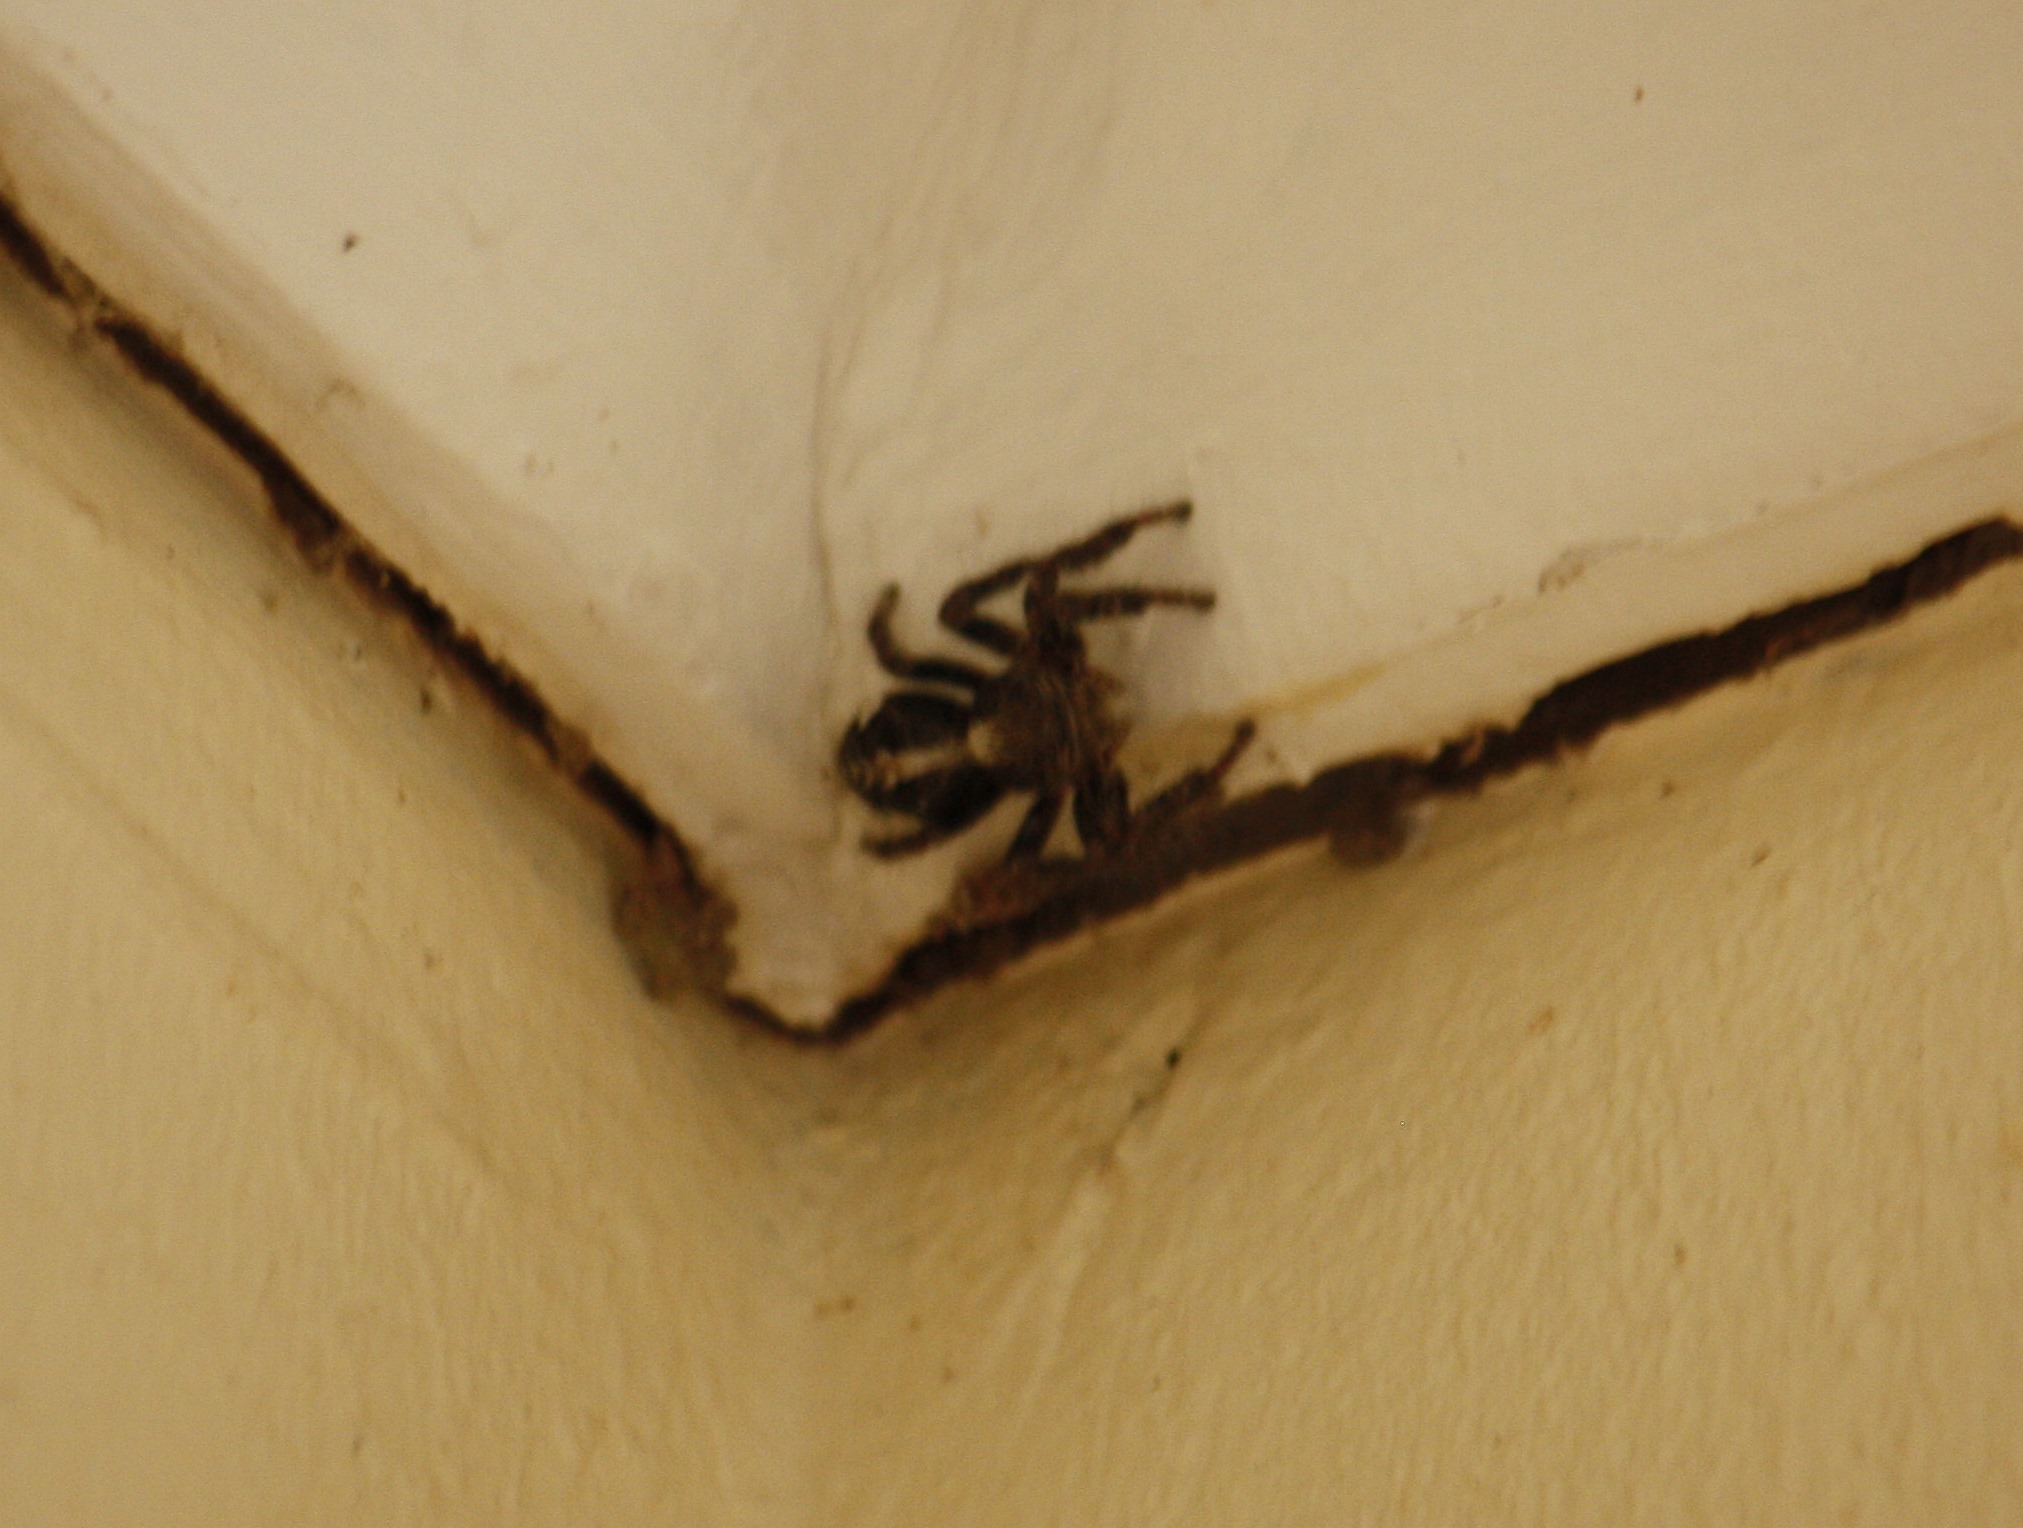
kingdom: Animalia
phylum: Arthropoda
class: Arachnida
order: Araneae
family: Salticidae
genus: Hyllus
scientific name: Hyllus treleaveni
